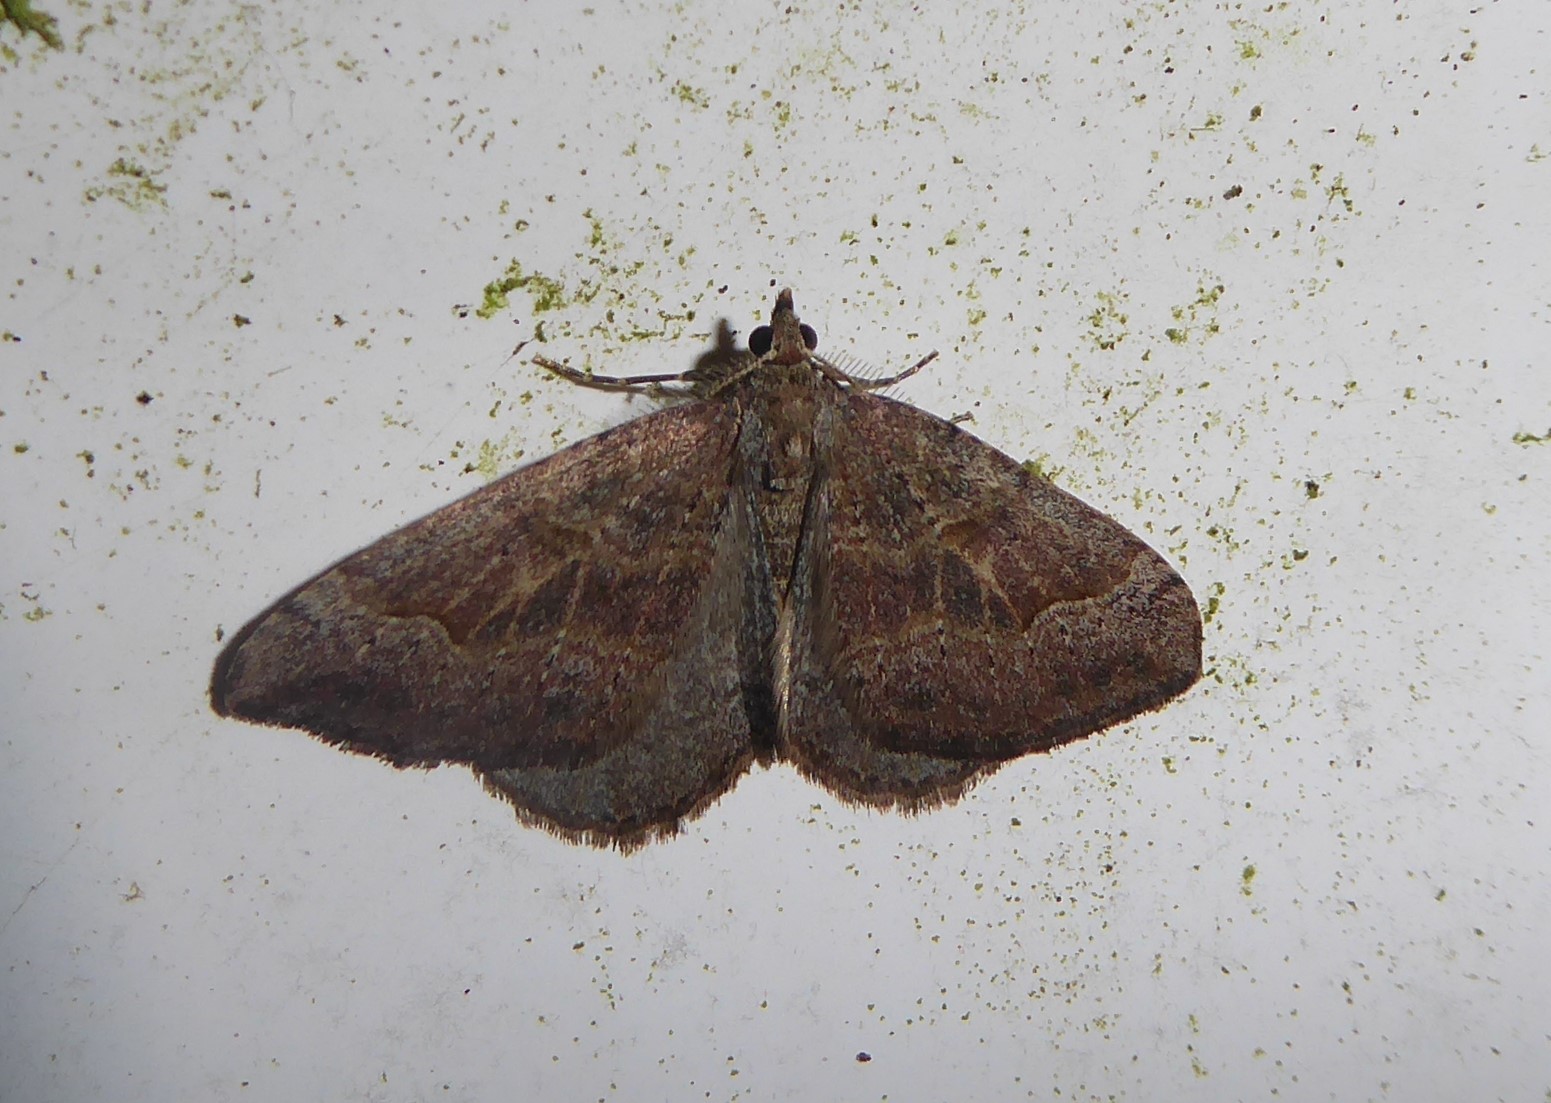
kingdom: Animalia
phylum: Arthropoda
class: Insecta
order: Lepidoptera
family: Geometridae
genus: Epyaxa
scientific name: Epyaxa rosearia
